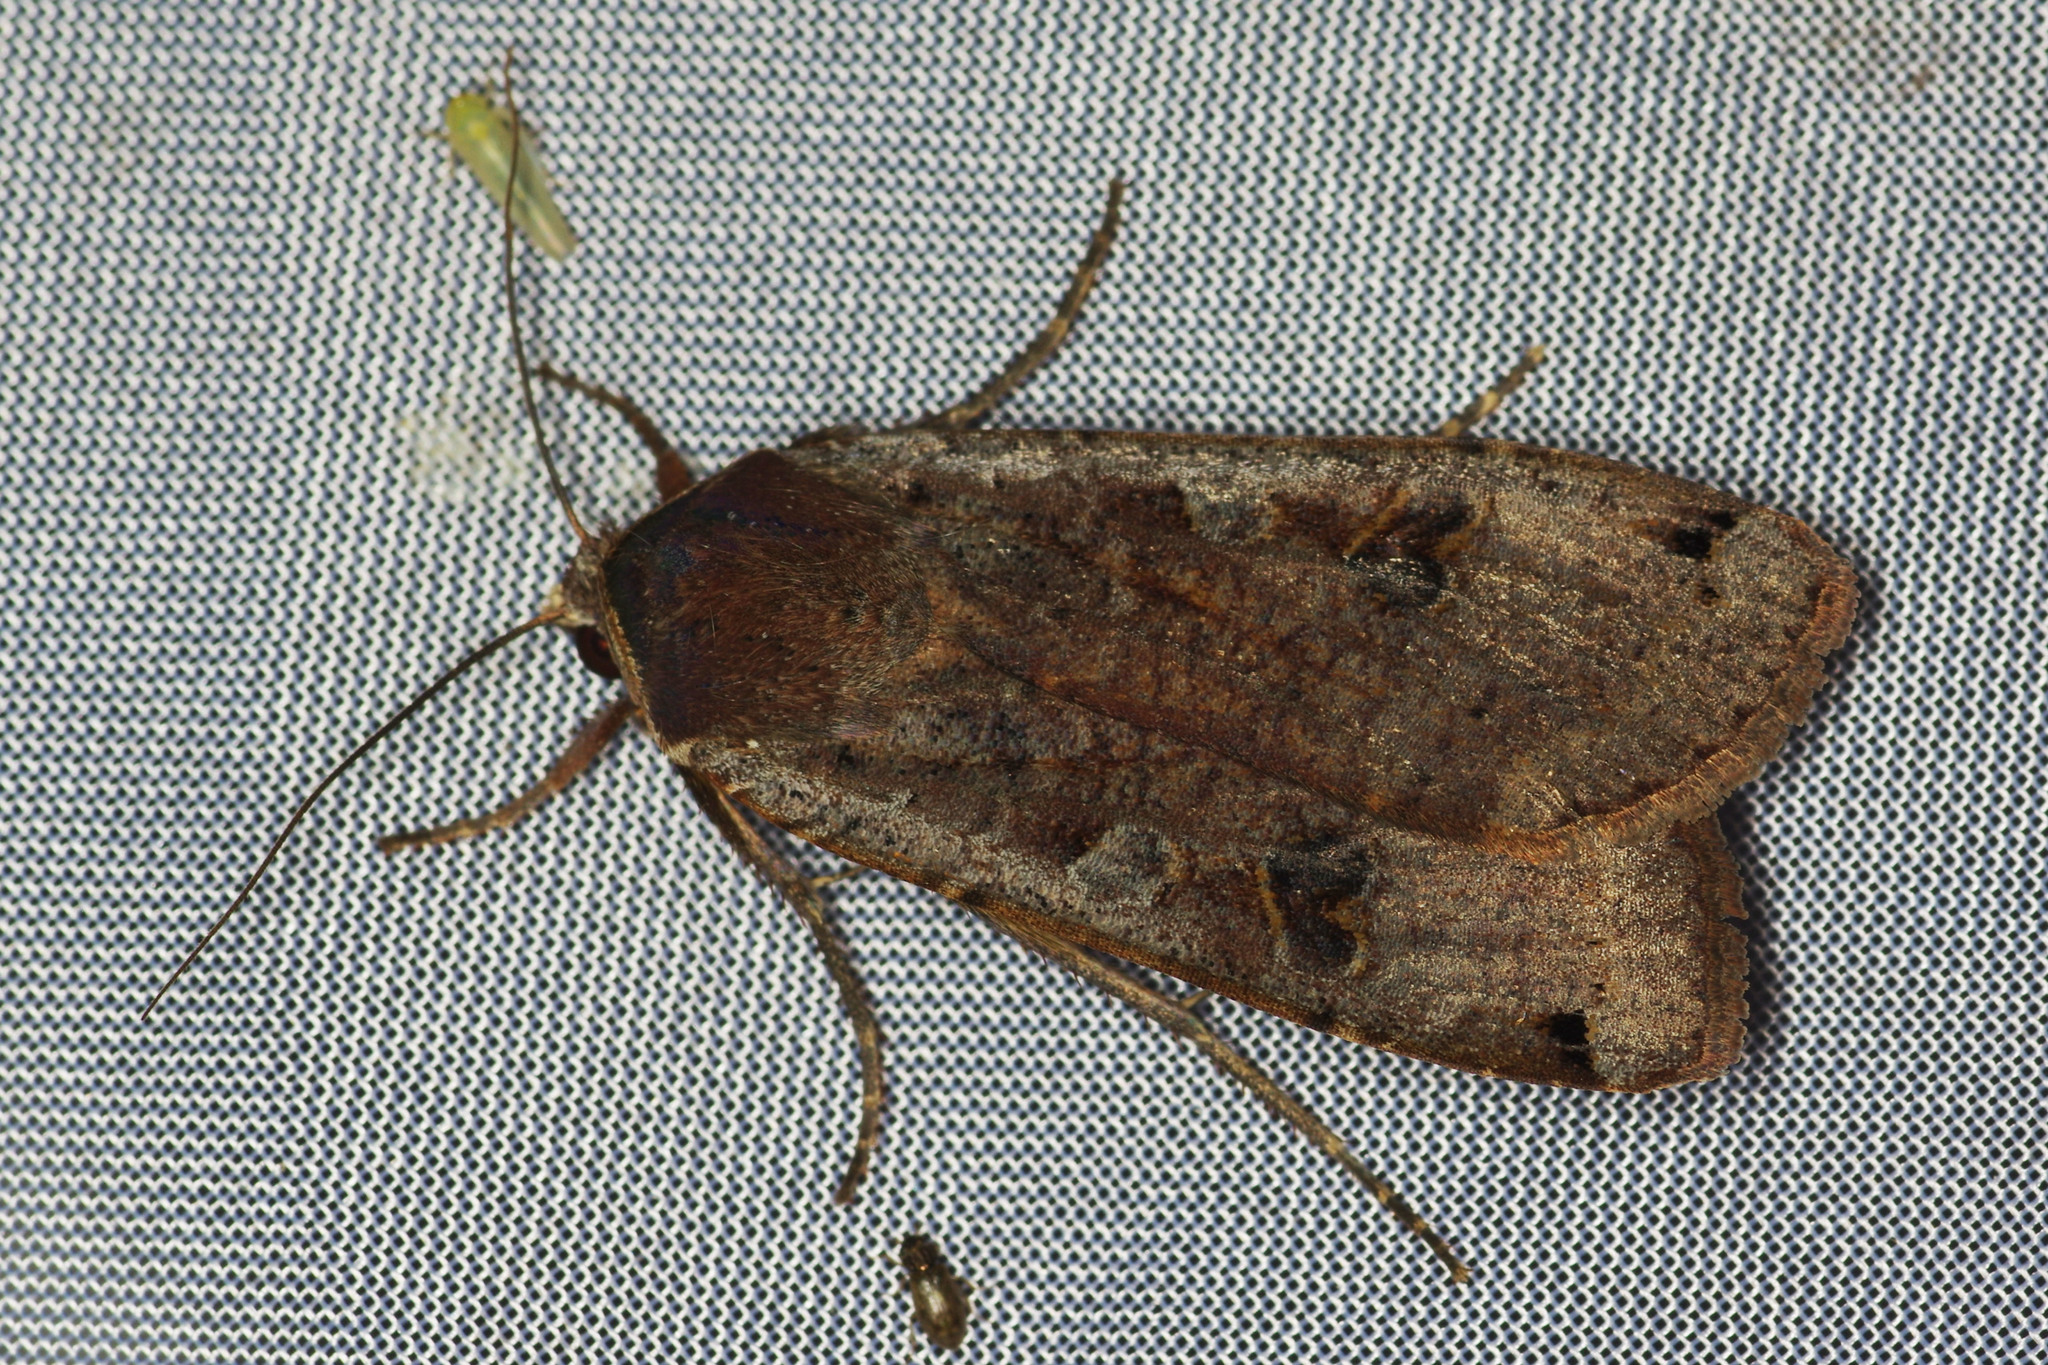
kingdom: Animalia
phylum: Arthropoda
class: Insecta
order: Lepidoptera
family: Noctuidae
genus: Noctua
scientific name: Noctua pronuba
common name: Large yellow underwing
